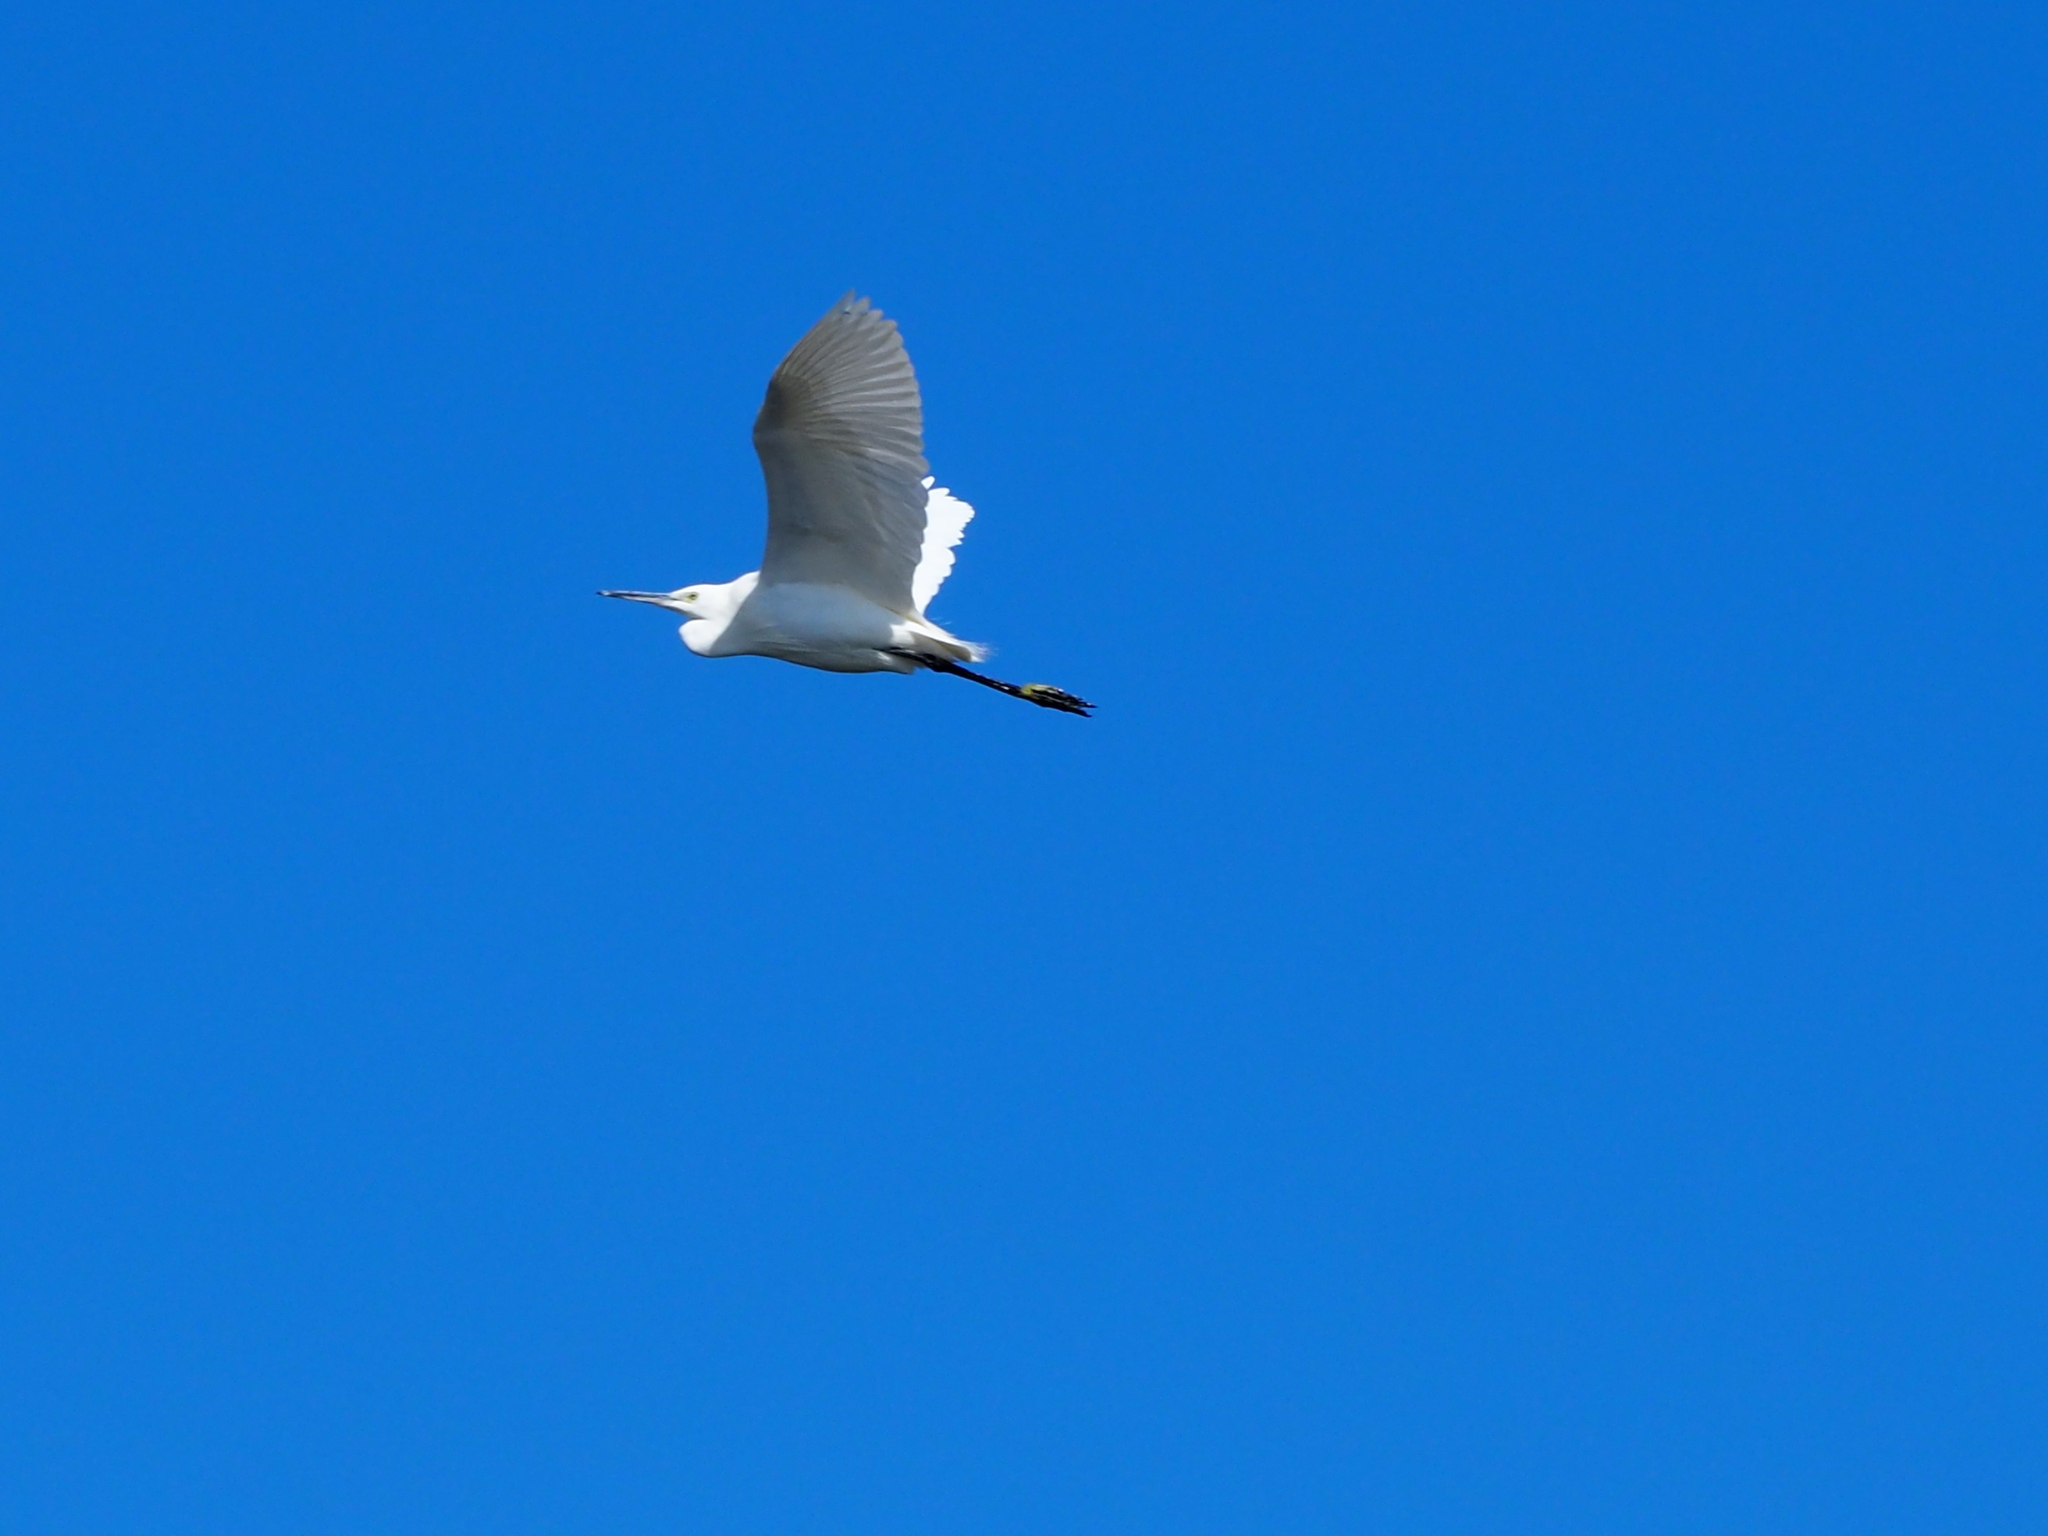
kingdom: Animalia
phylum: Chordata
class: Aves
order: Pelecaniformes
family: Ardeidae
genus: Egretta
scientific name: Egretta garzetta
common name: Little egret
